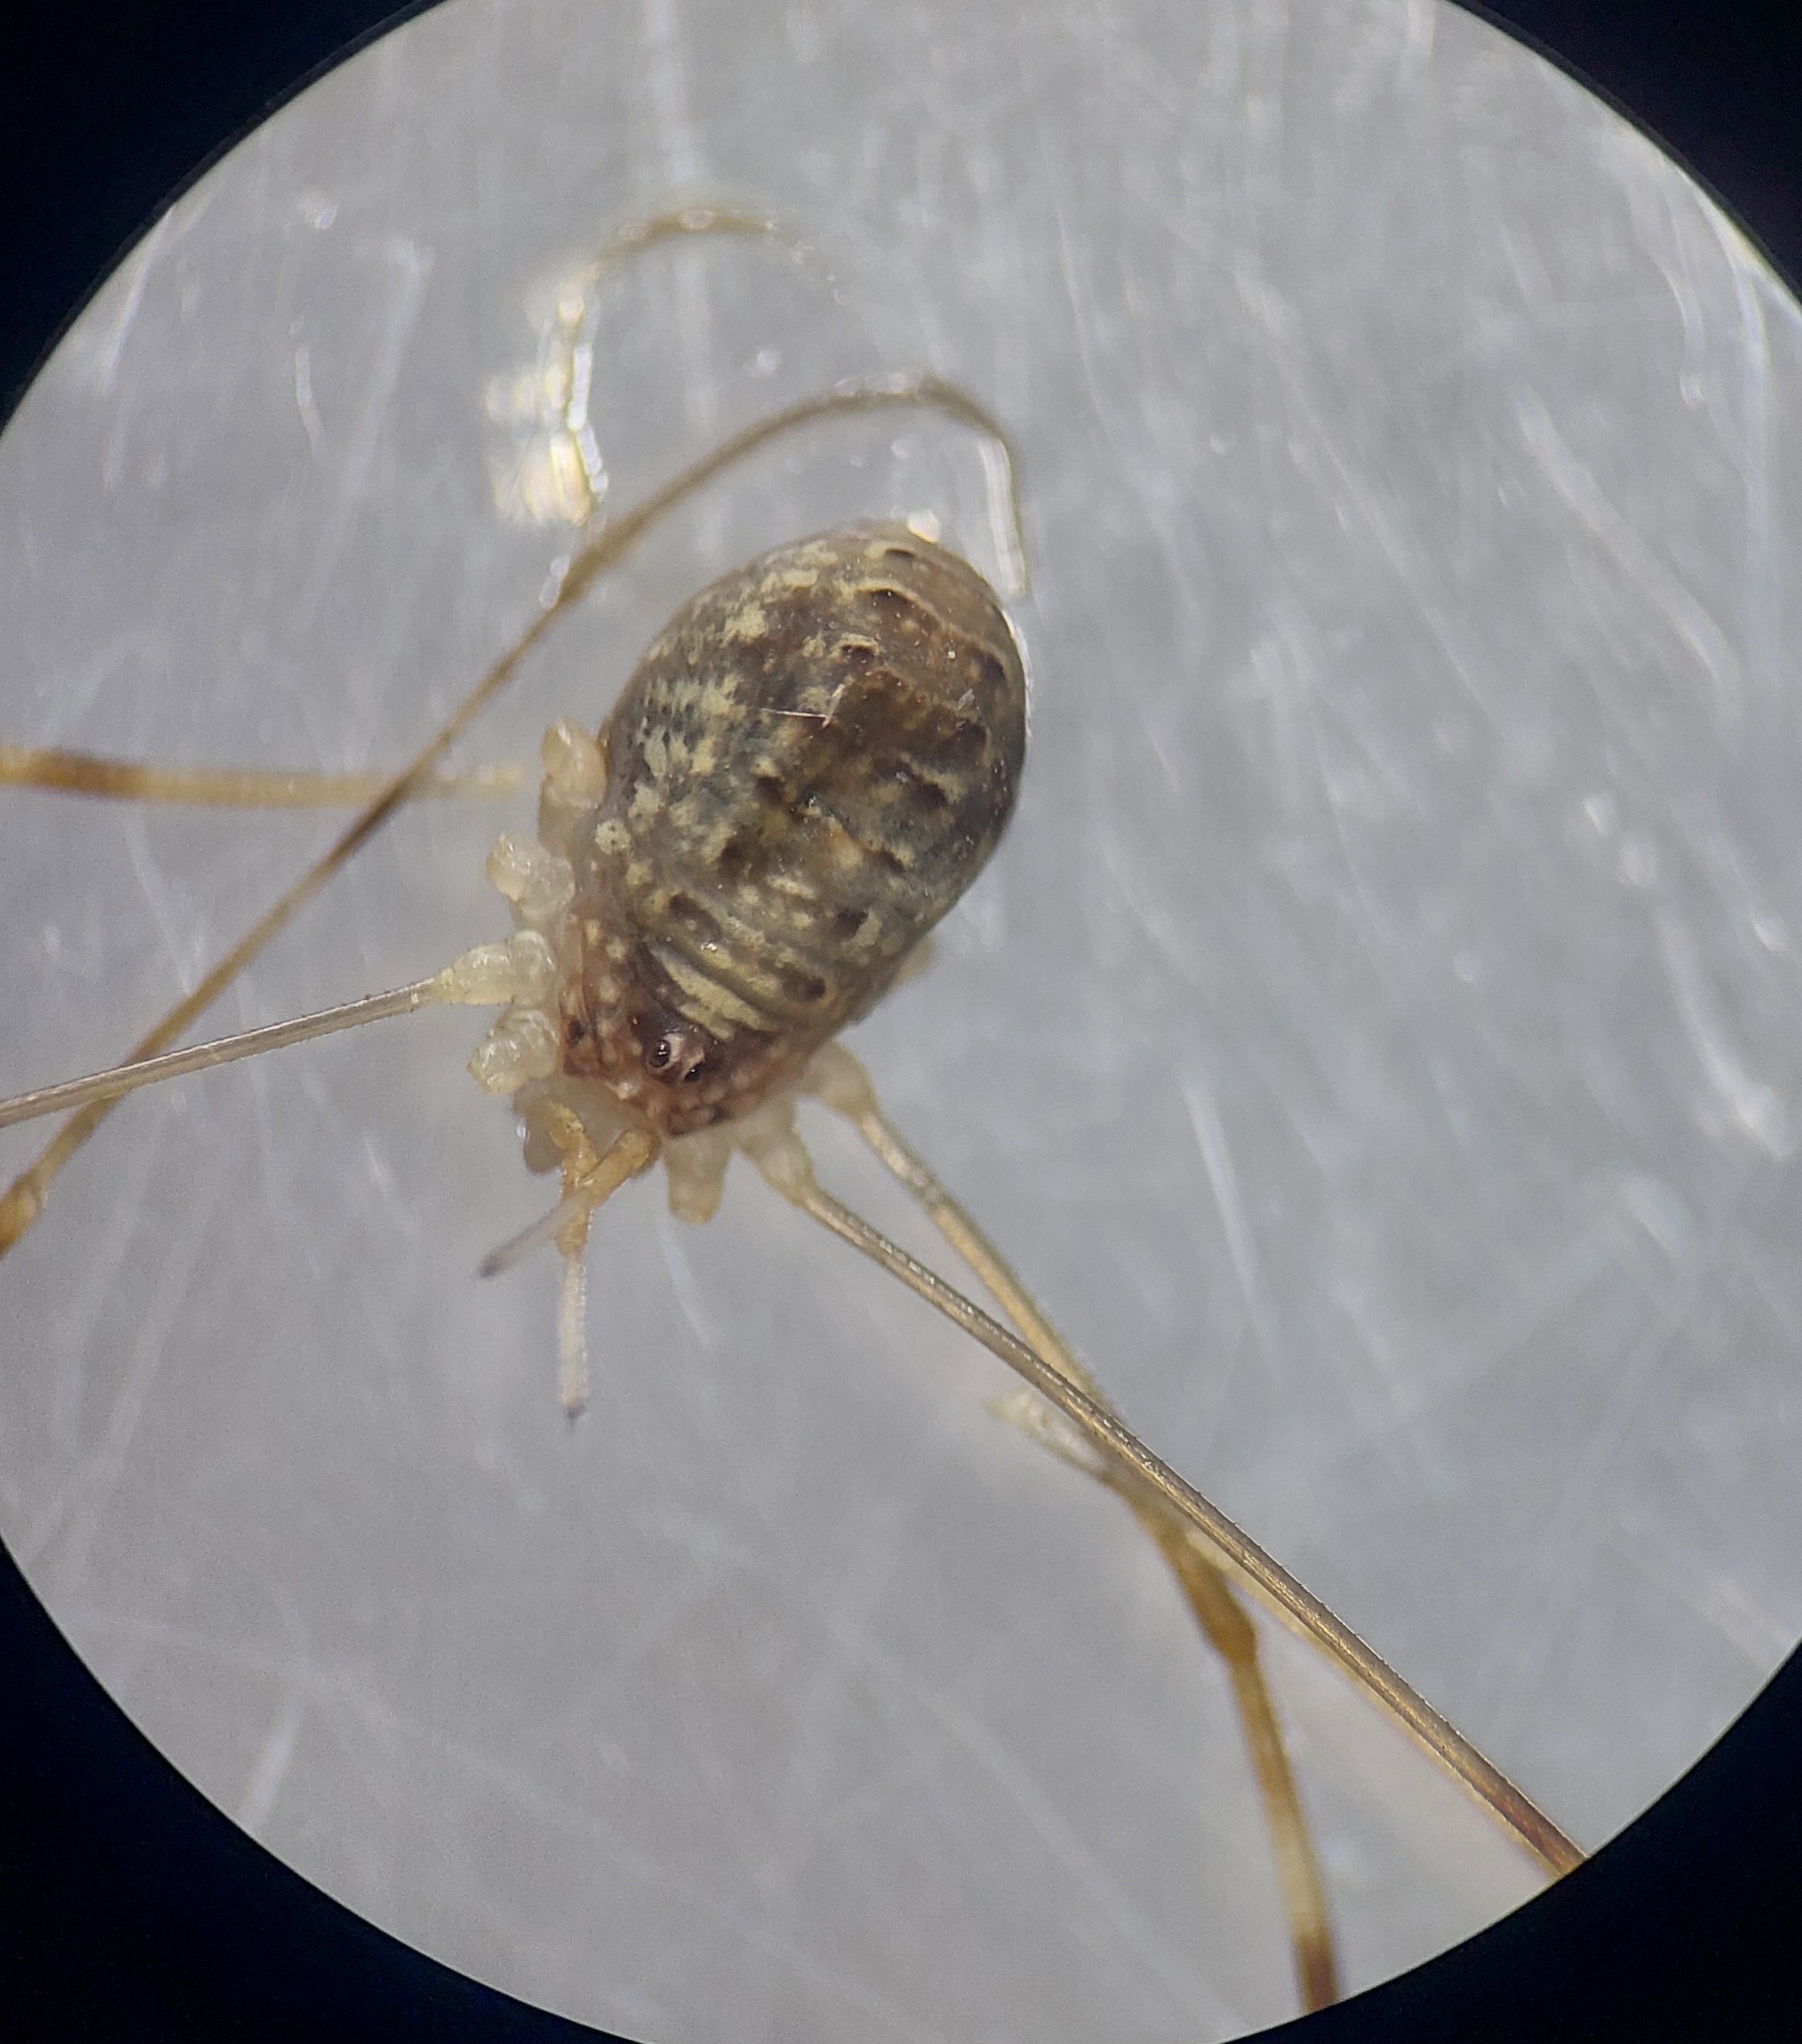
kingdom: Animalia
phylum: Arthropoda
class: Arachnida
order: Opiliones
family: Phalangiidae
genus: Opilio
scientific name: Opilio canestrinii
